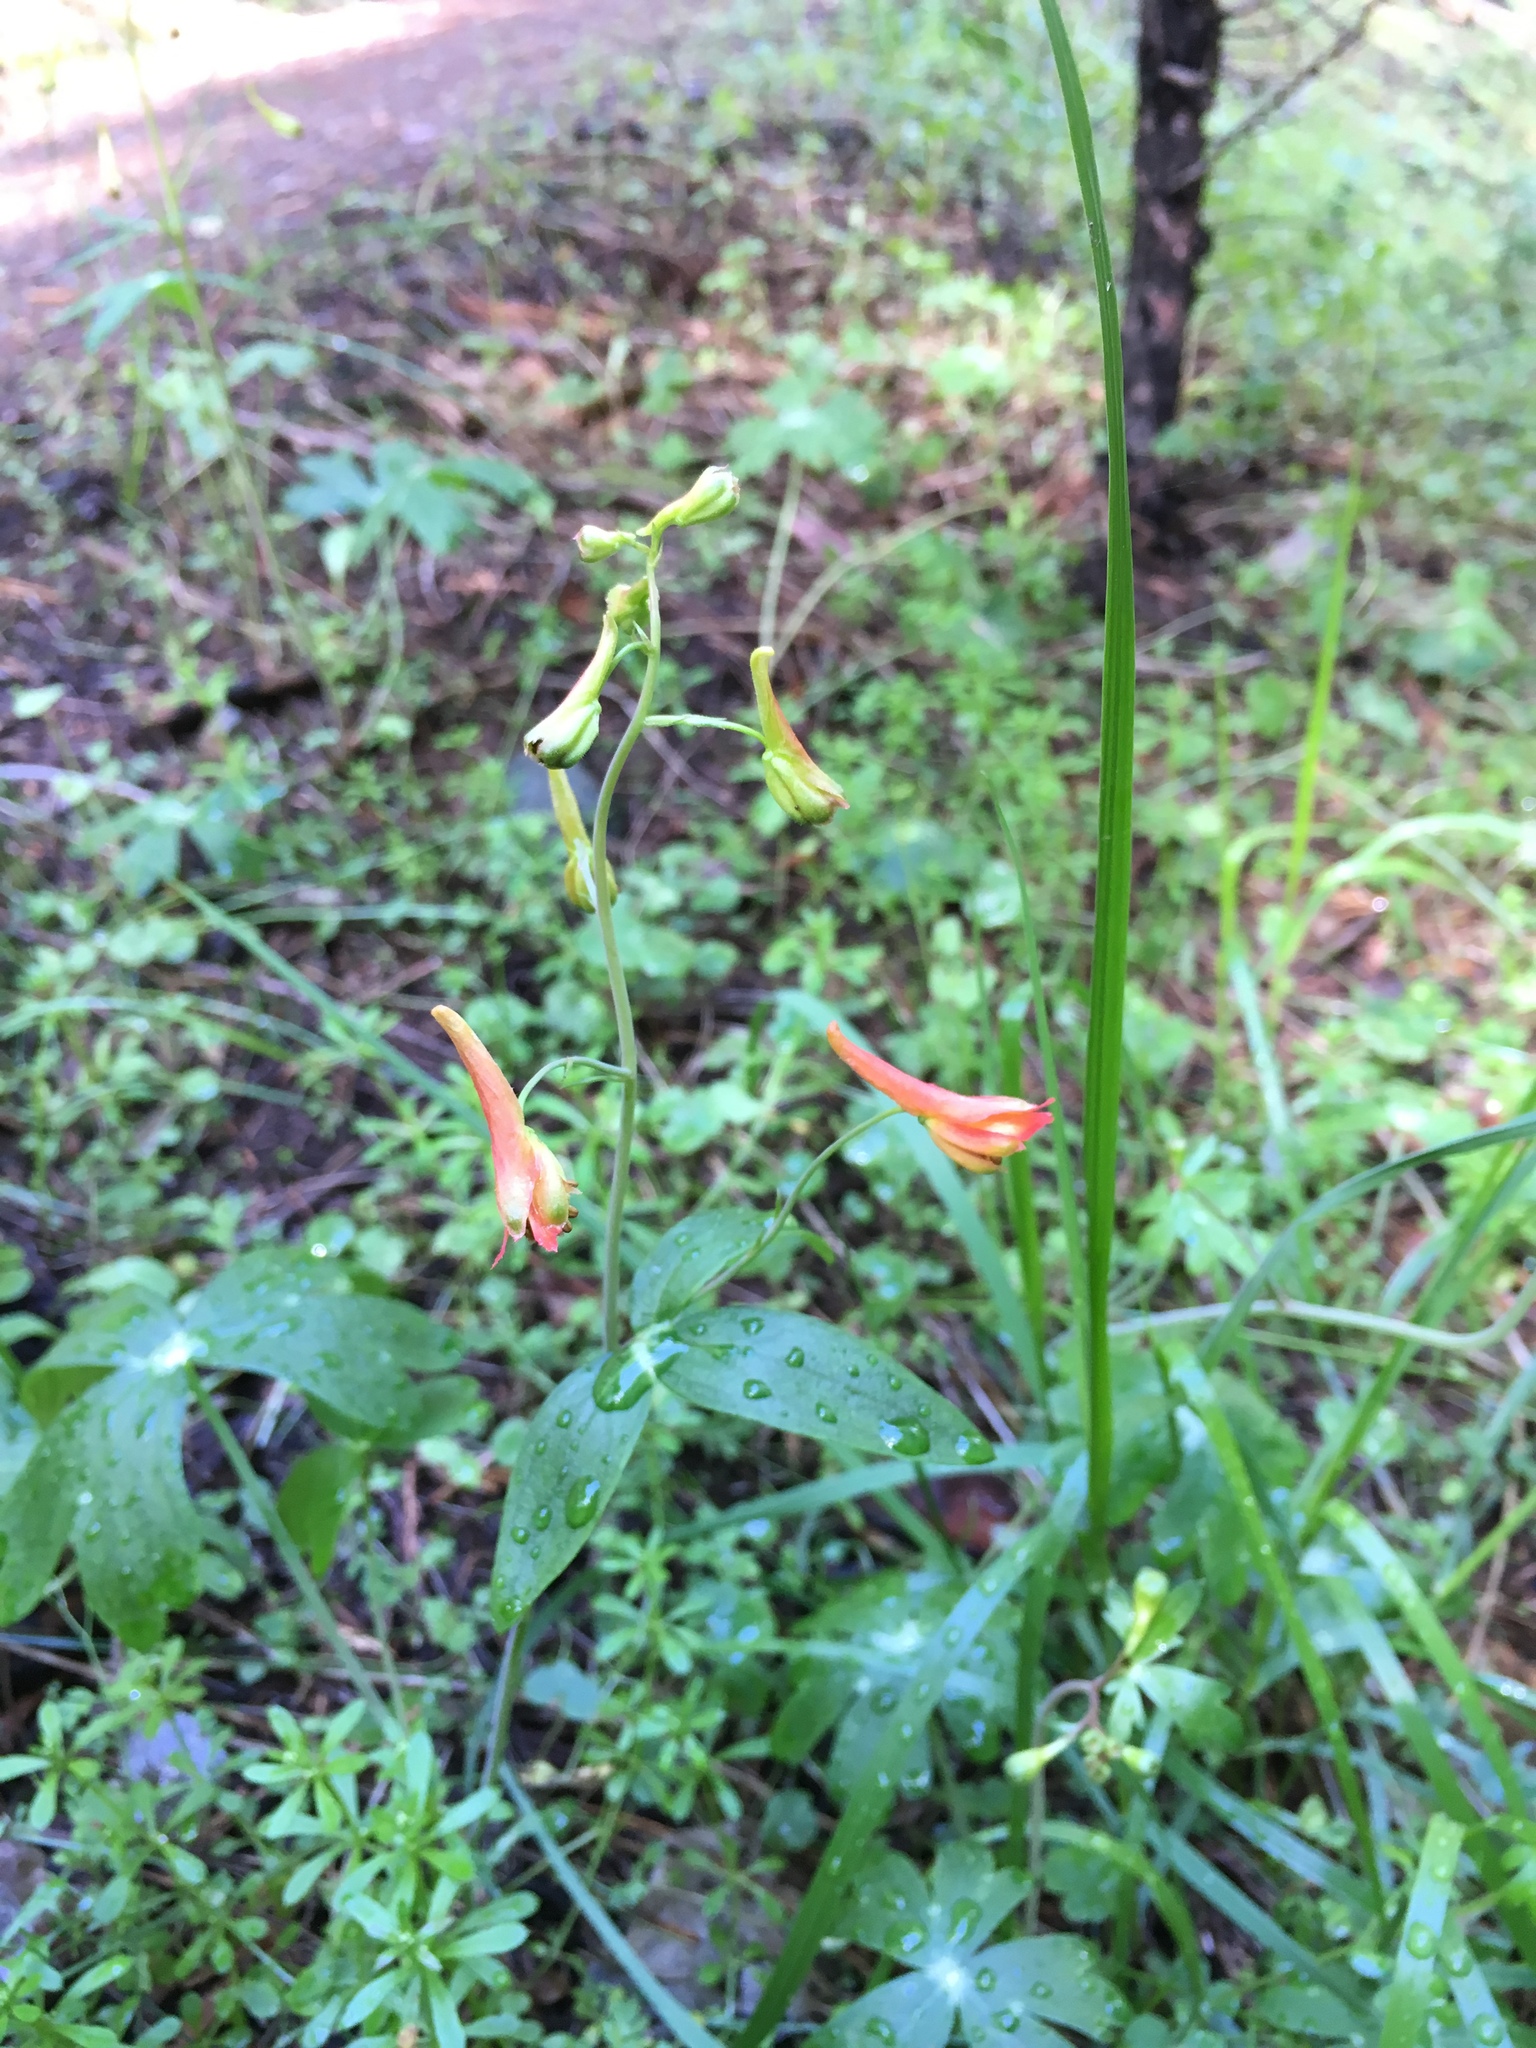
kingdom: Plantae
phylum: Tracheophyta
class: Magnoliopsida
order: Ranunculales
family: Ranunculaceae
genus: Delphinium
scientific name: Delphinium nudicaule
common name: Red larkspur
